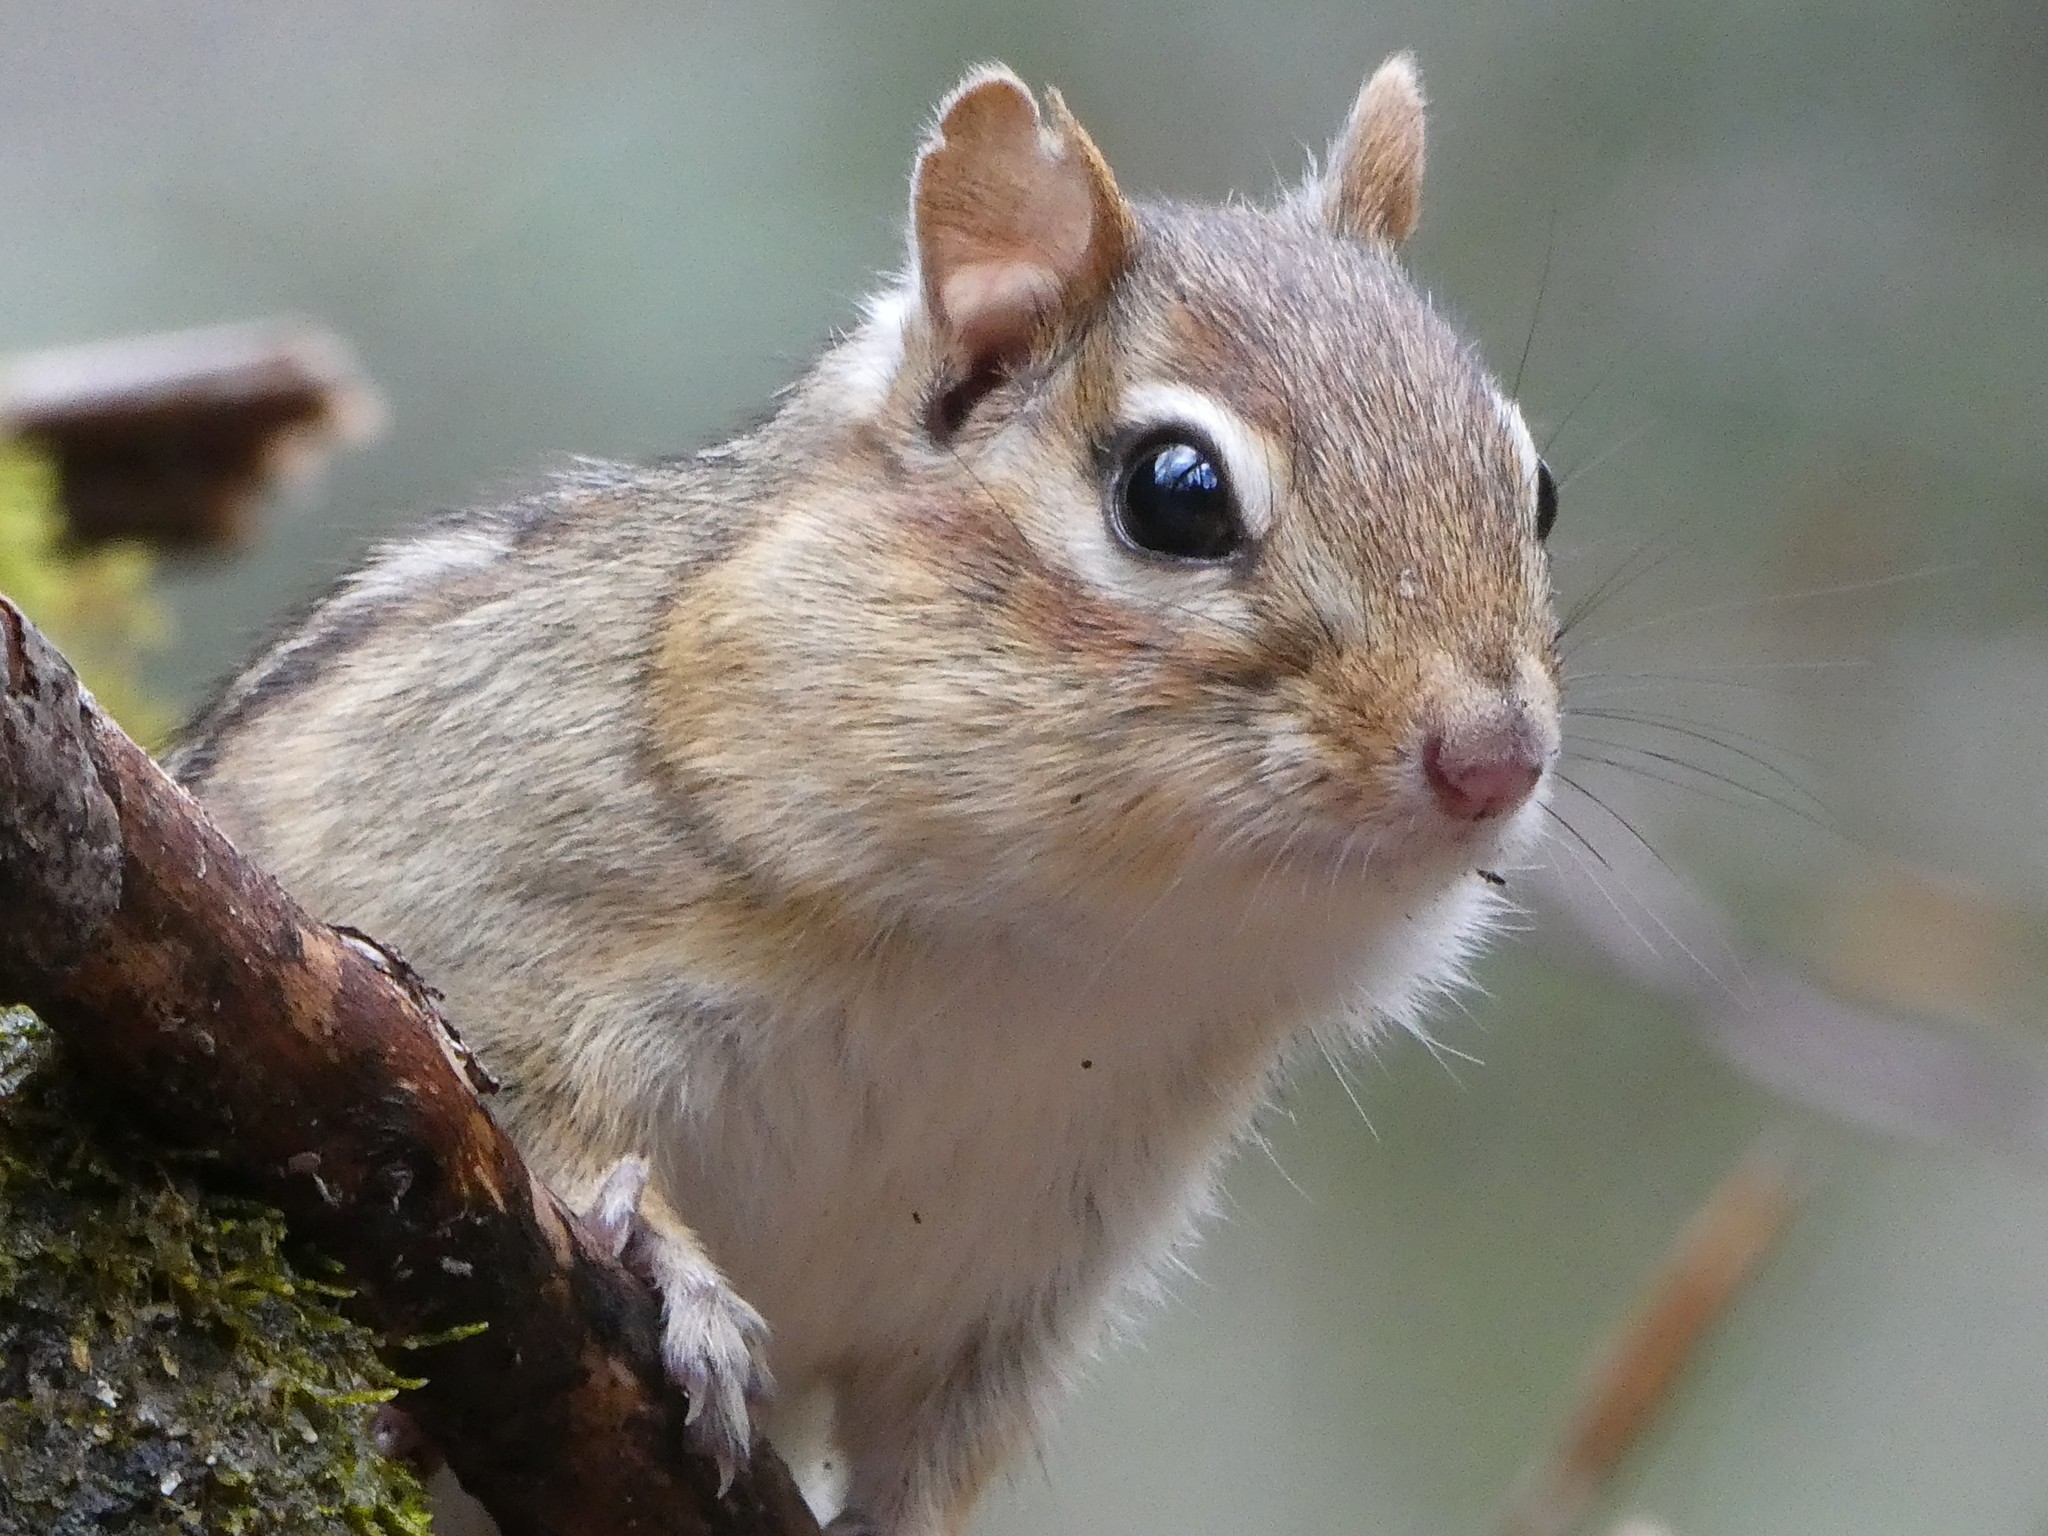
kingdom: Animalia
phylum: Chordata
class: Mammalia
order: Rodentia
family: Sciuridae
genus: Tamias
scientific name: Tamias striatus
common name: Eastern chipmunk
